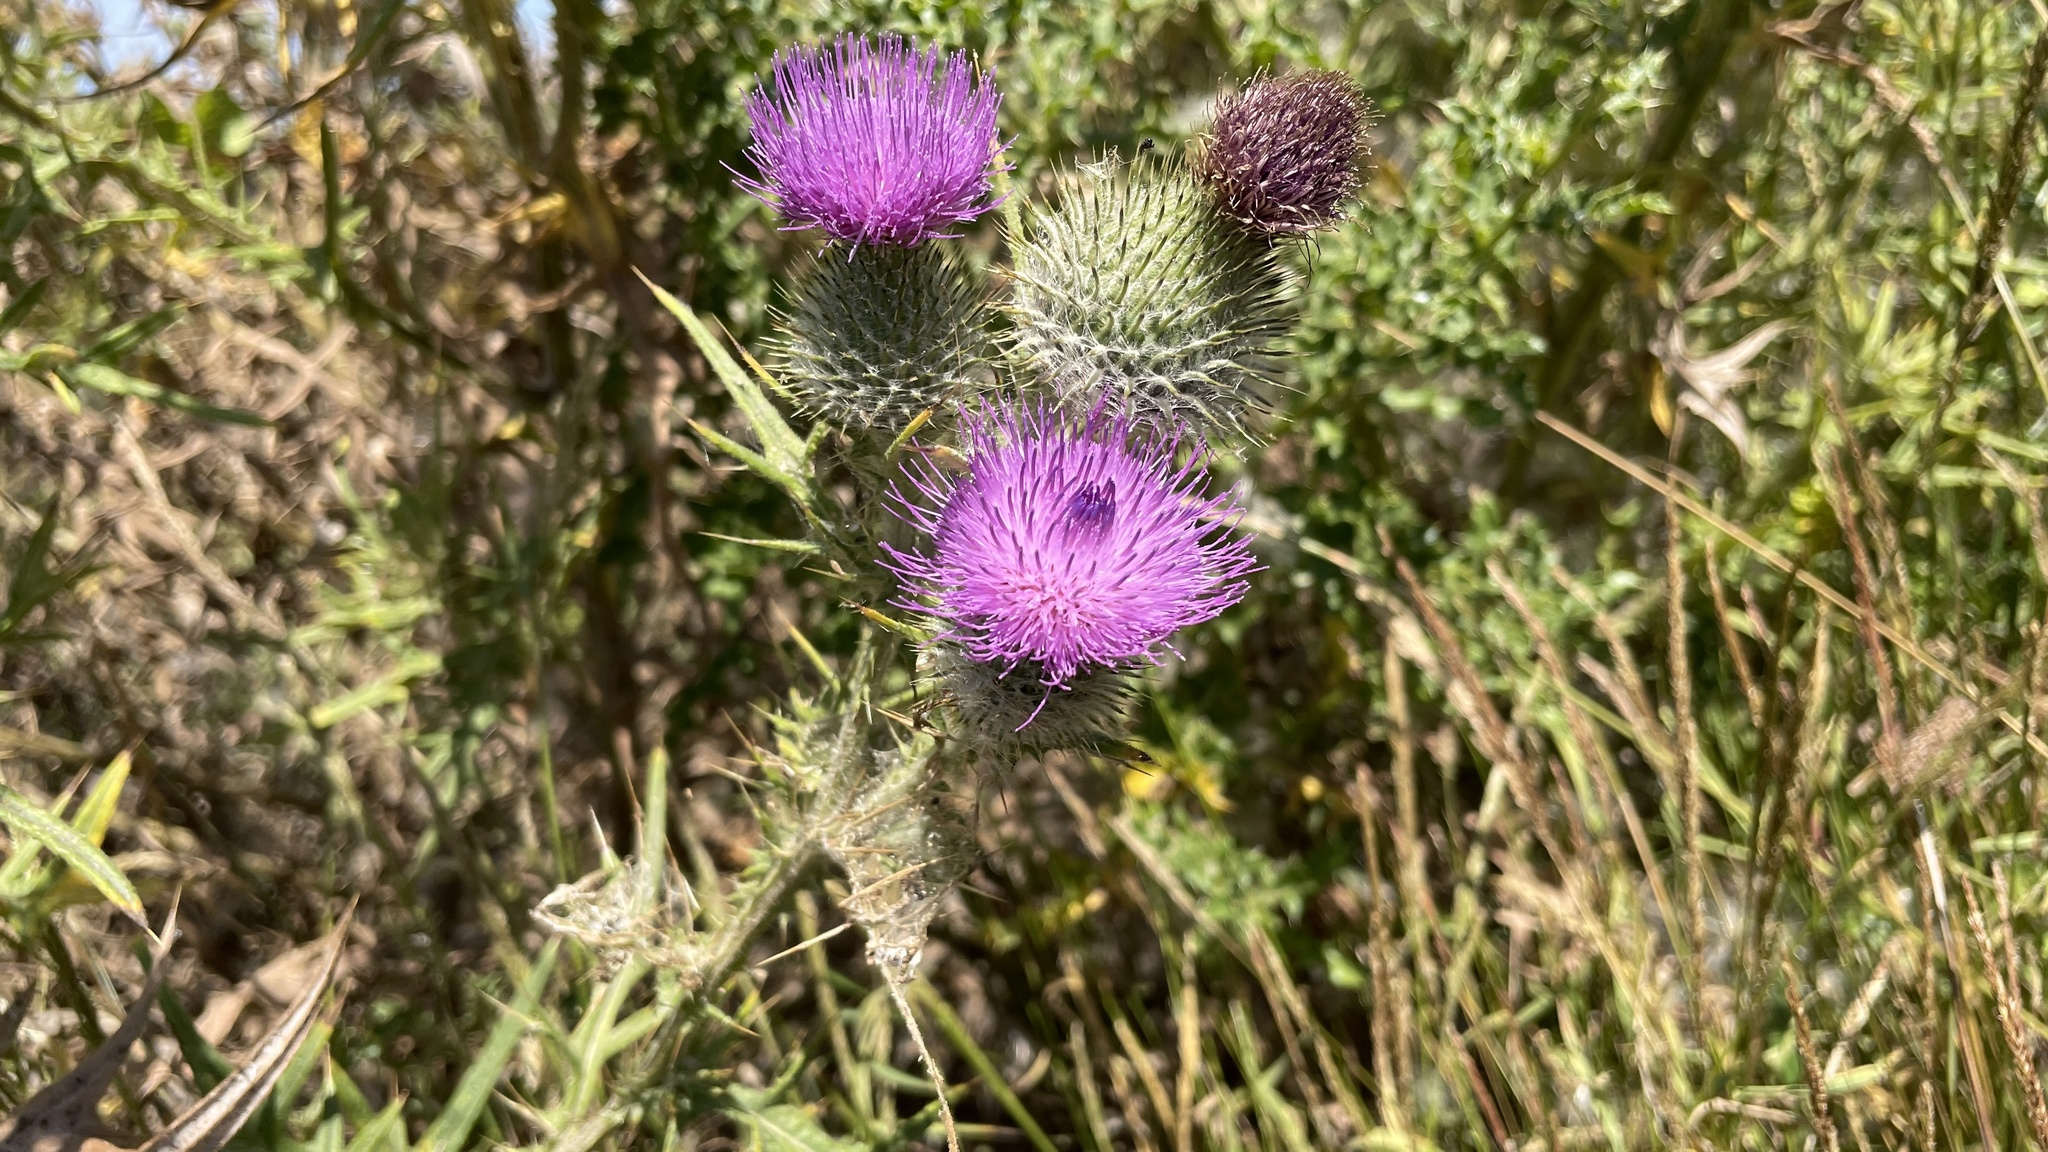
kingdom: Plantae
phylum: Tracheophyta
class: Magnoliopsida
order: Asterales
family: Asteraceae
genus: Cirsium
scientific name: Cirsium vulgare
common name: Bull thistle
